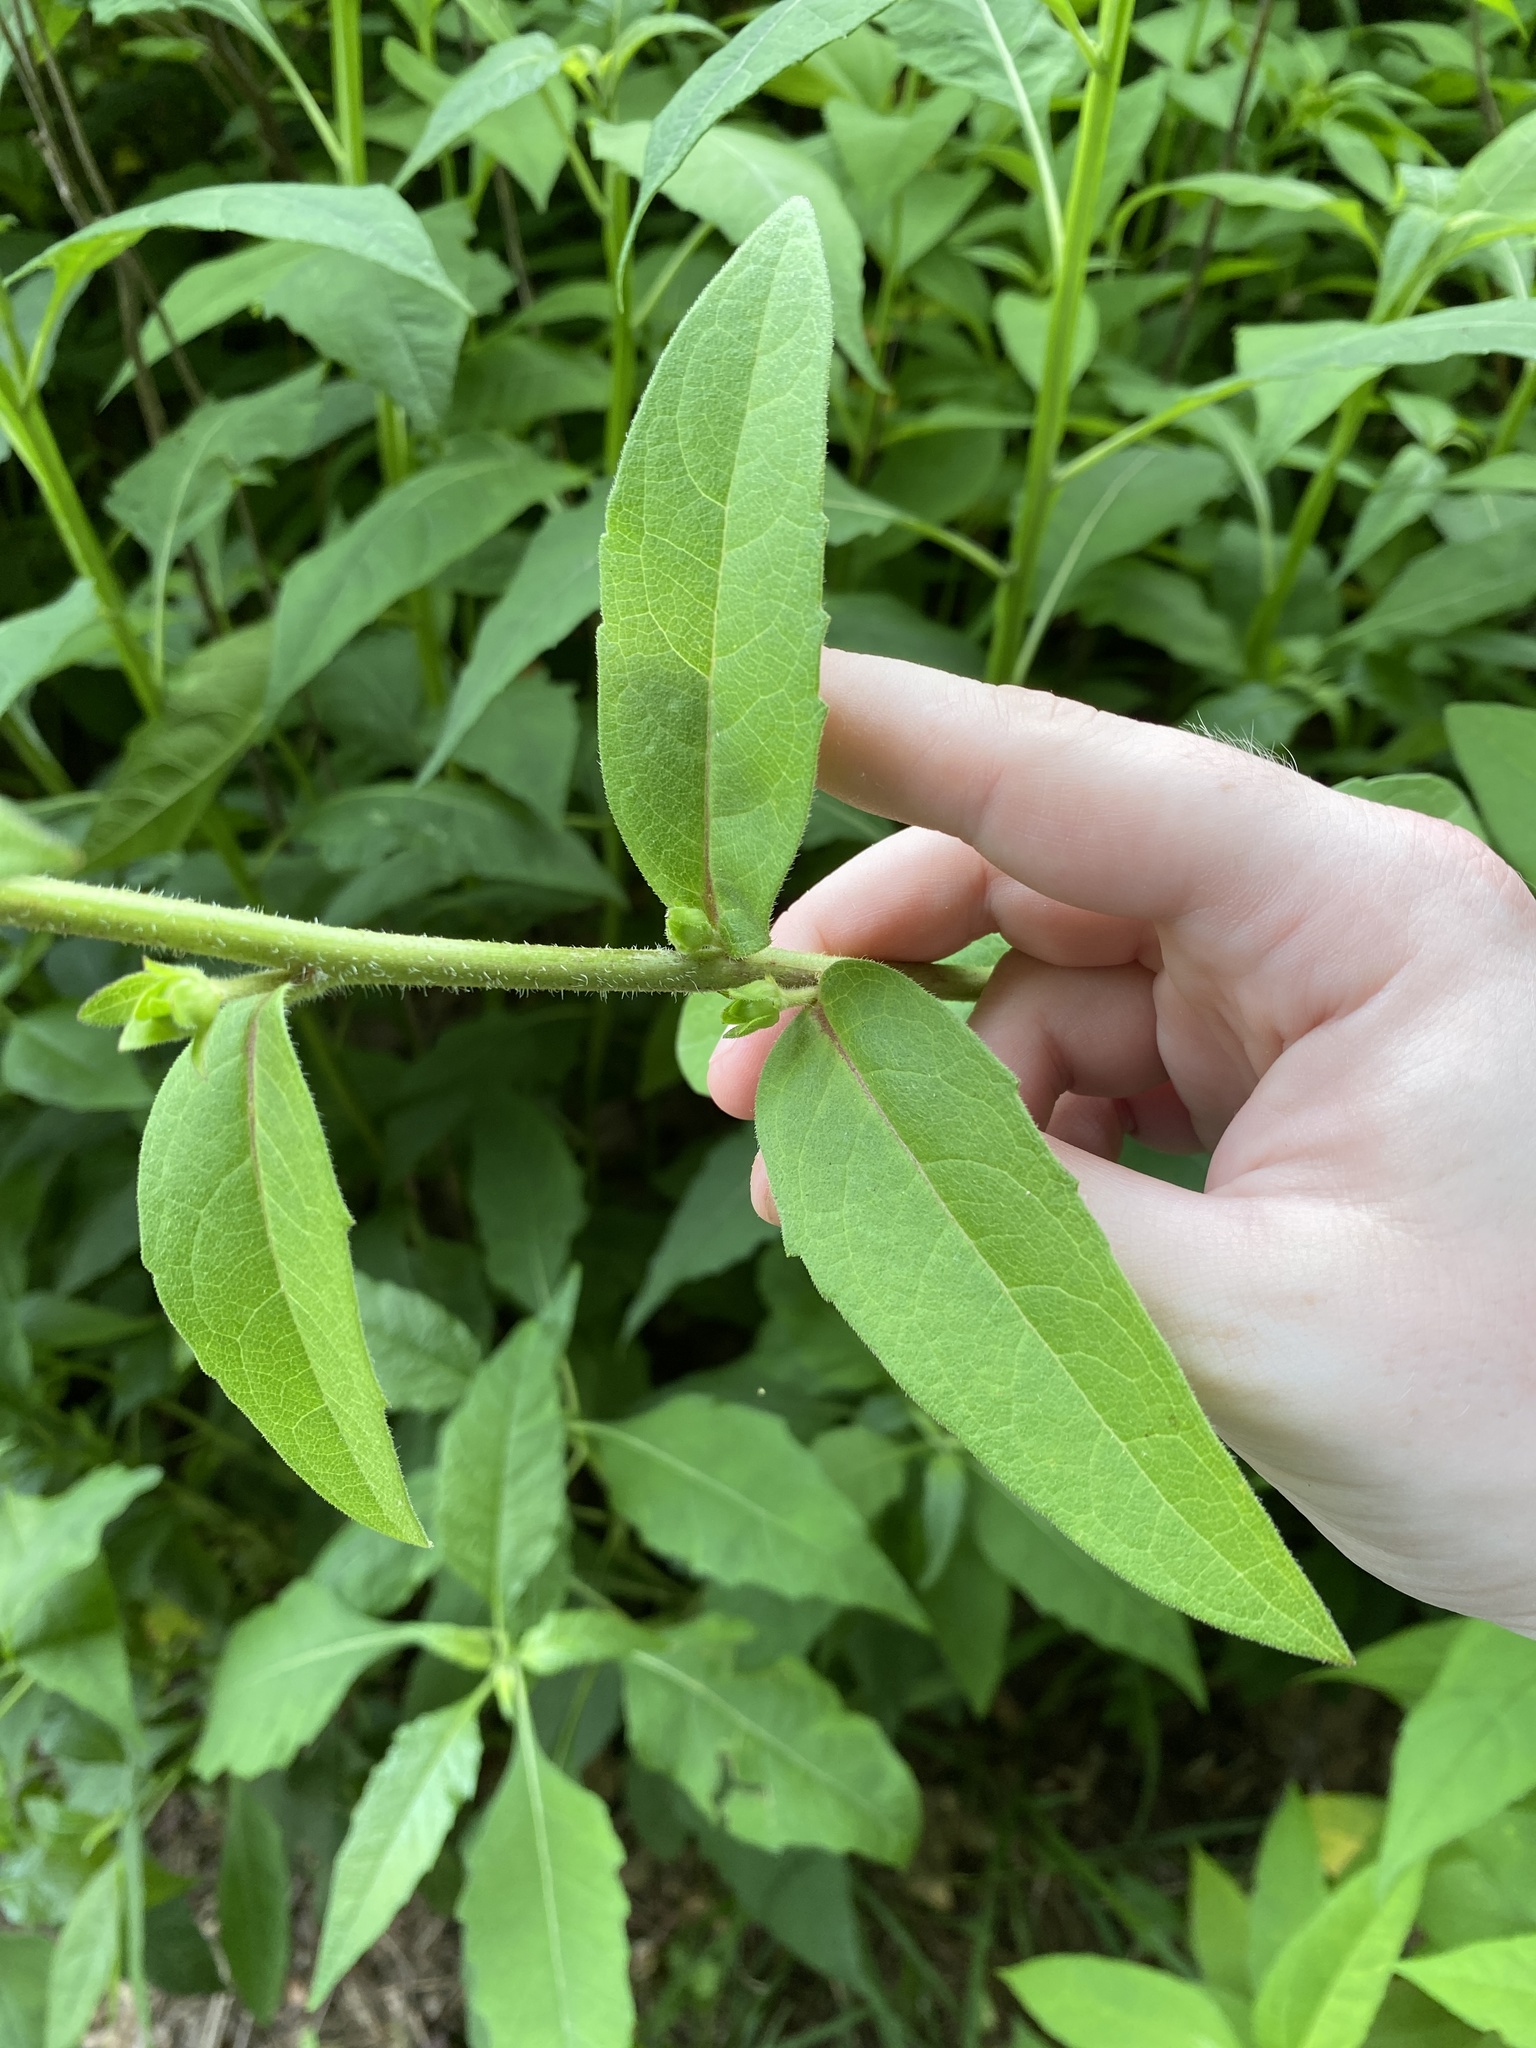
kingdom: Plantae
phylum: Tracheophyta
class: Magnoliopsida
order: Asterales
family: Asteraceae
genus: Silphium
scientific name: Silphium asteriscus
